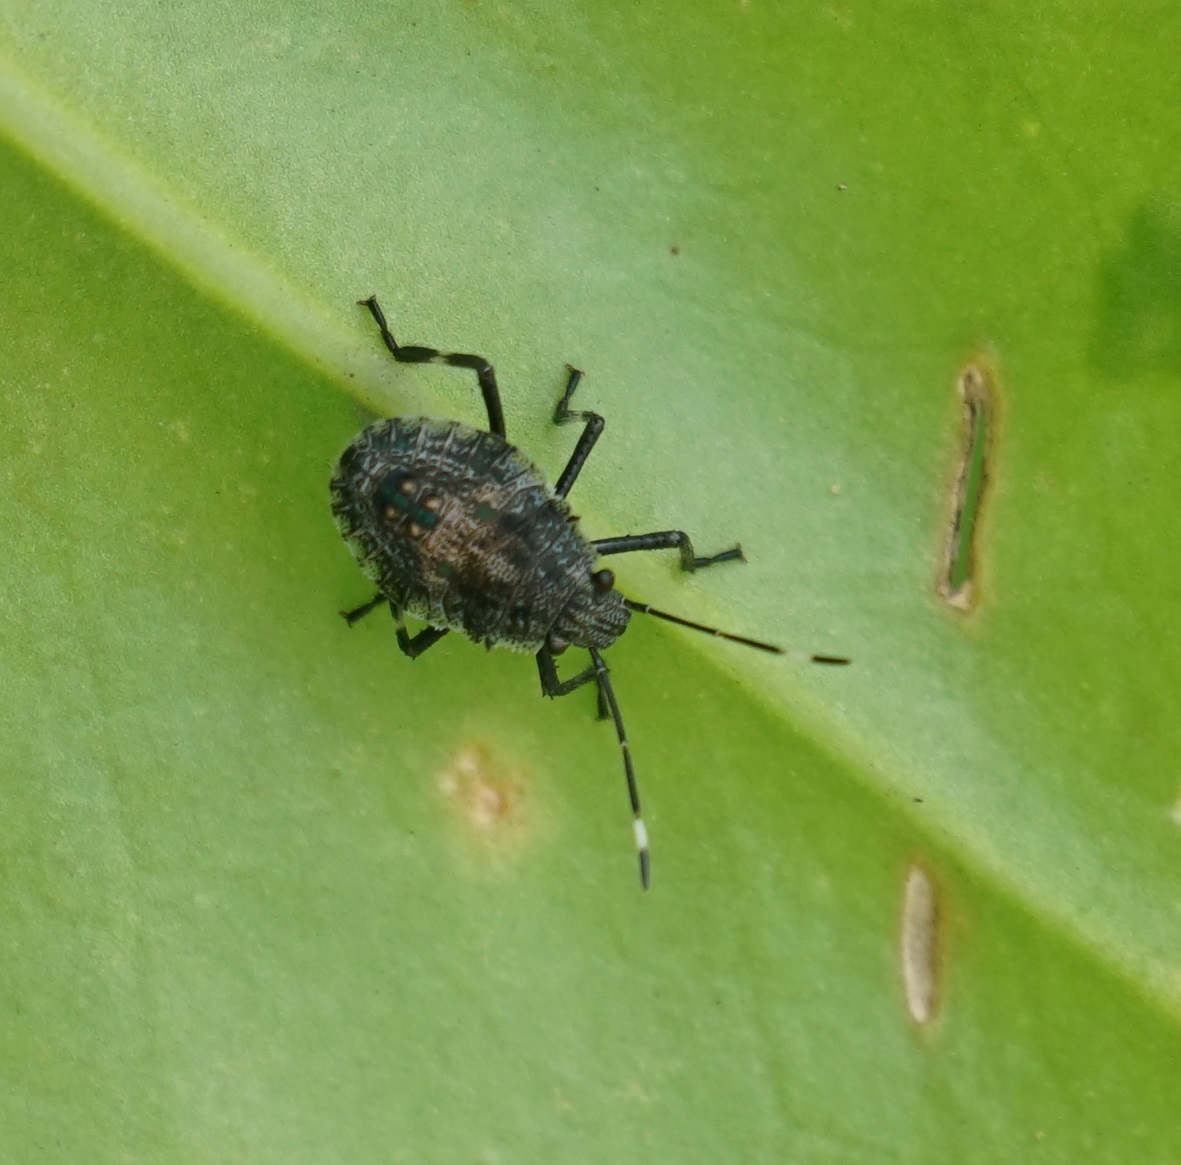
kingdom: Animalia
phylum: Arthropoda
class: Insecta
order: Hemiptera
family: Pentatomidae
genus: Bromocoris
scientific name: Bromocoris
